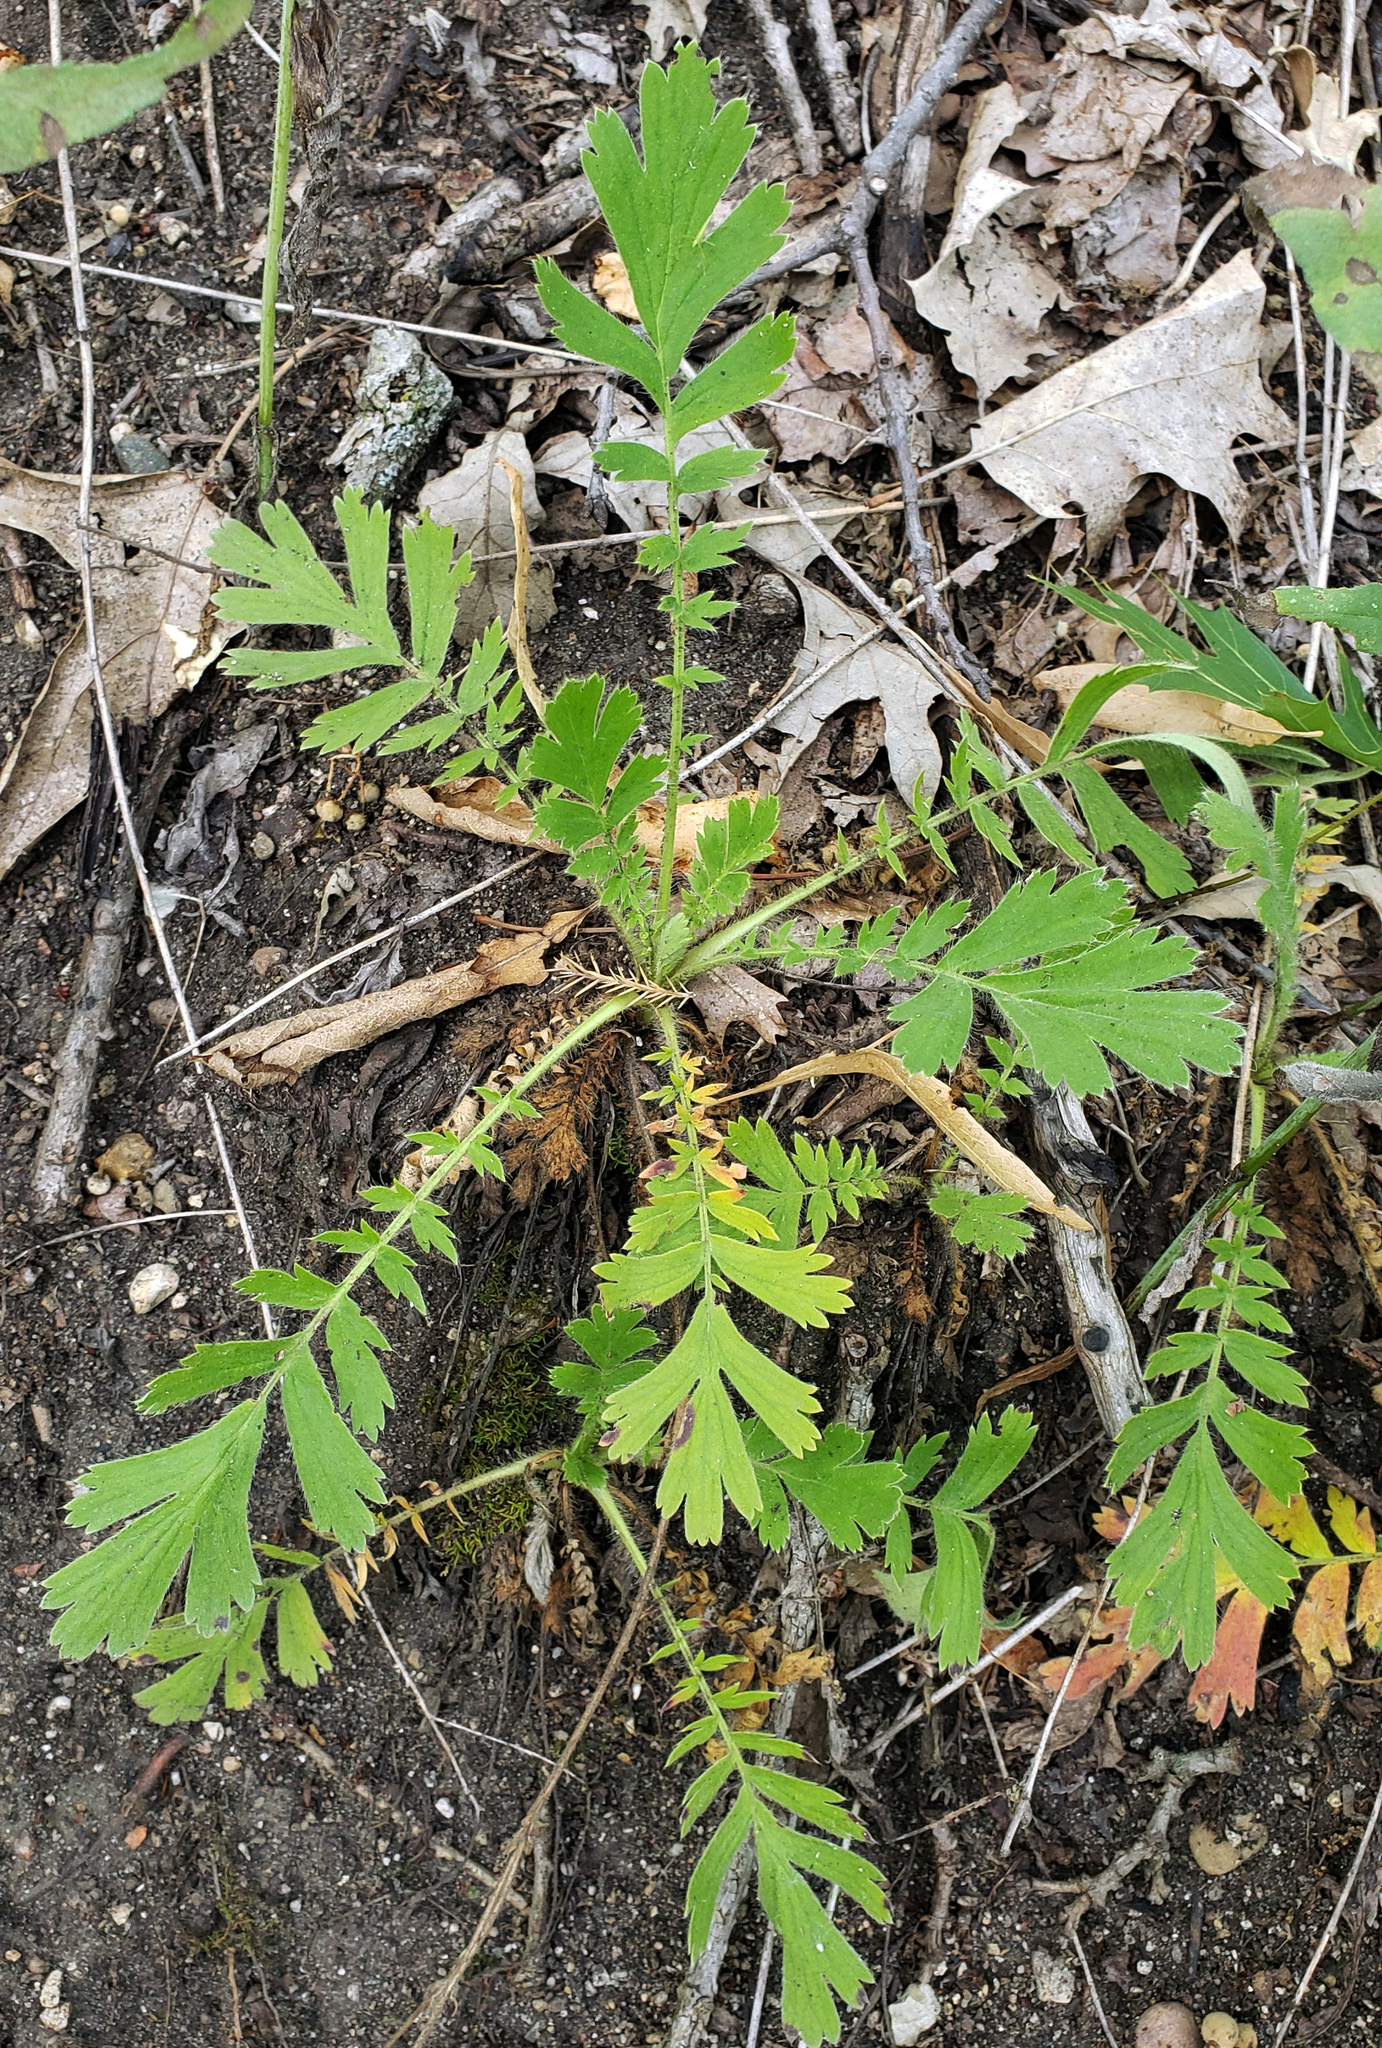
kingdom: Plantae
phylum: Tracheophyta
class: Magnoliopsida
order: Rosales
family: Rosaceae
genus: Geum
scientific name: Geum triflorum
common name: Old man's whiskers
